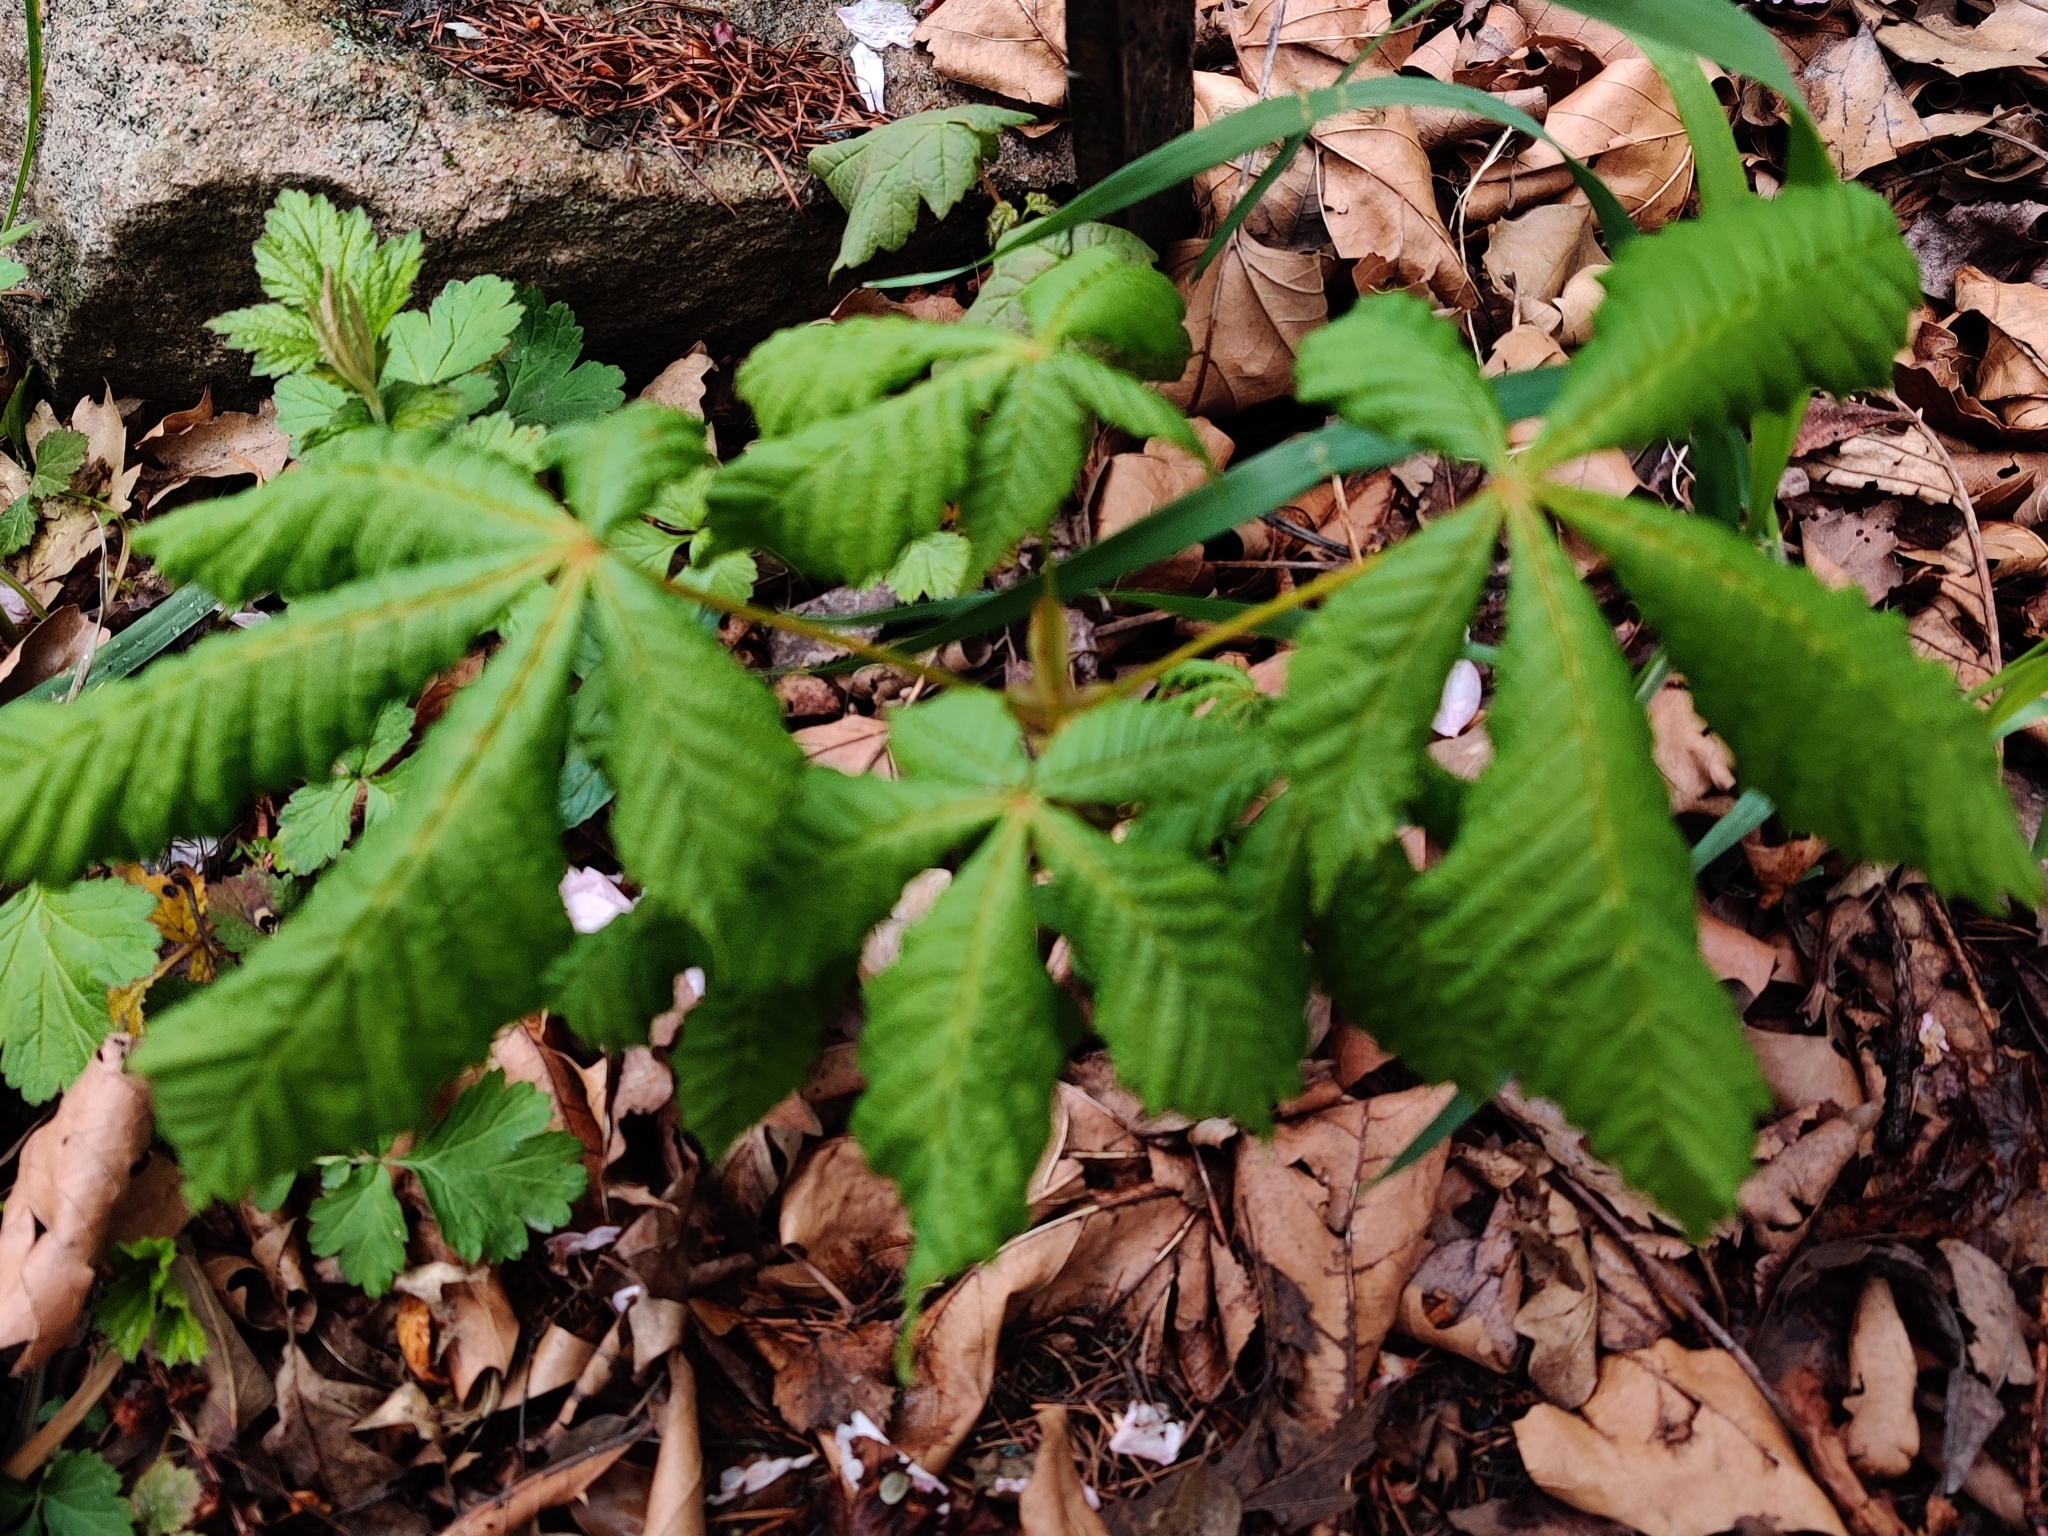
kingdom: Plantae
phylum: Tracheophyta
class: Magnoliopsida
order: Sapindales
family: Sapindaceae
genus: Aesculus
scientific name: Aesculus hippocastanum
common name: Horse-chestnut
